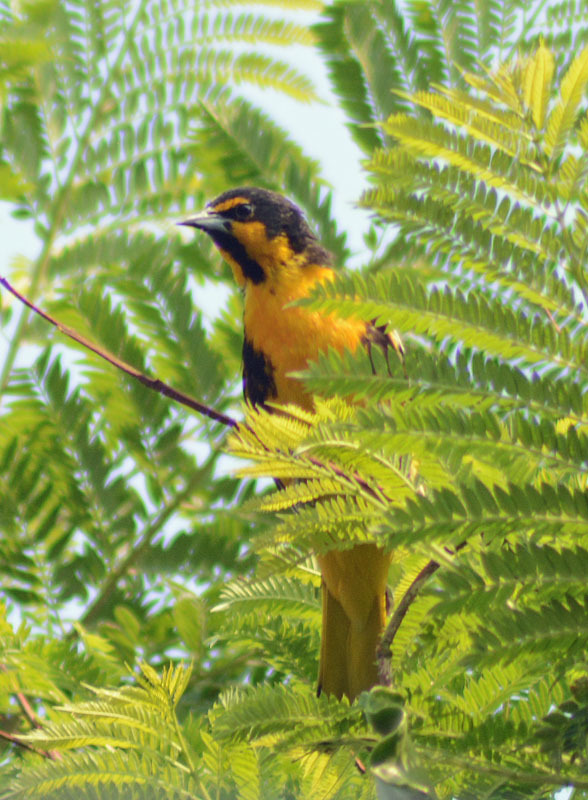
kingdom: Animalia
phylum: Chordata
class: Aves
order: Passeriformes
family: Icteridae
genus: Icterus
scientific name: Icterus abeillei
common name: Black-backed oriole
